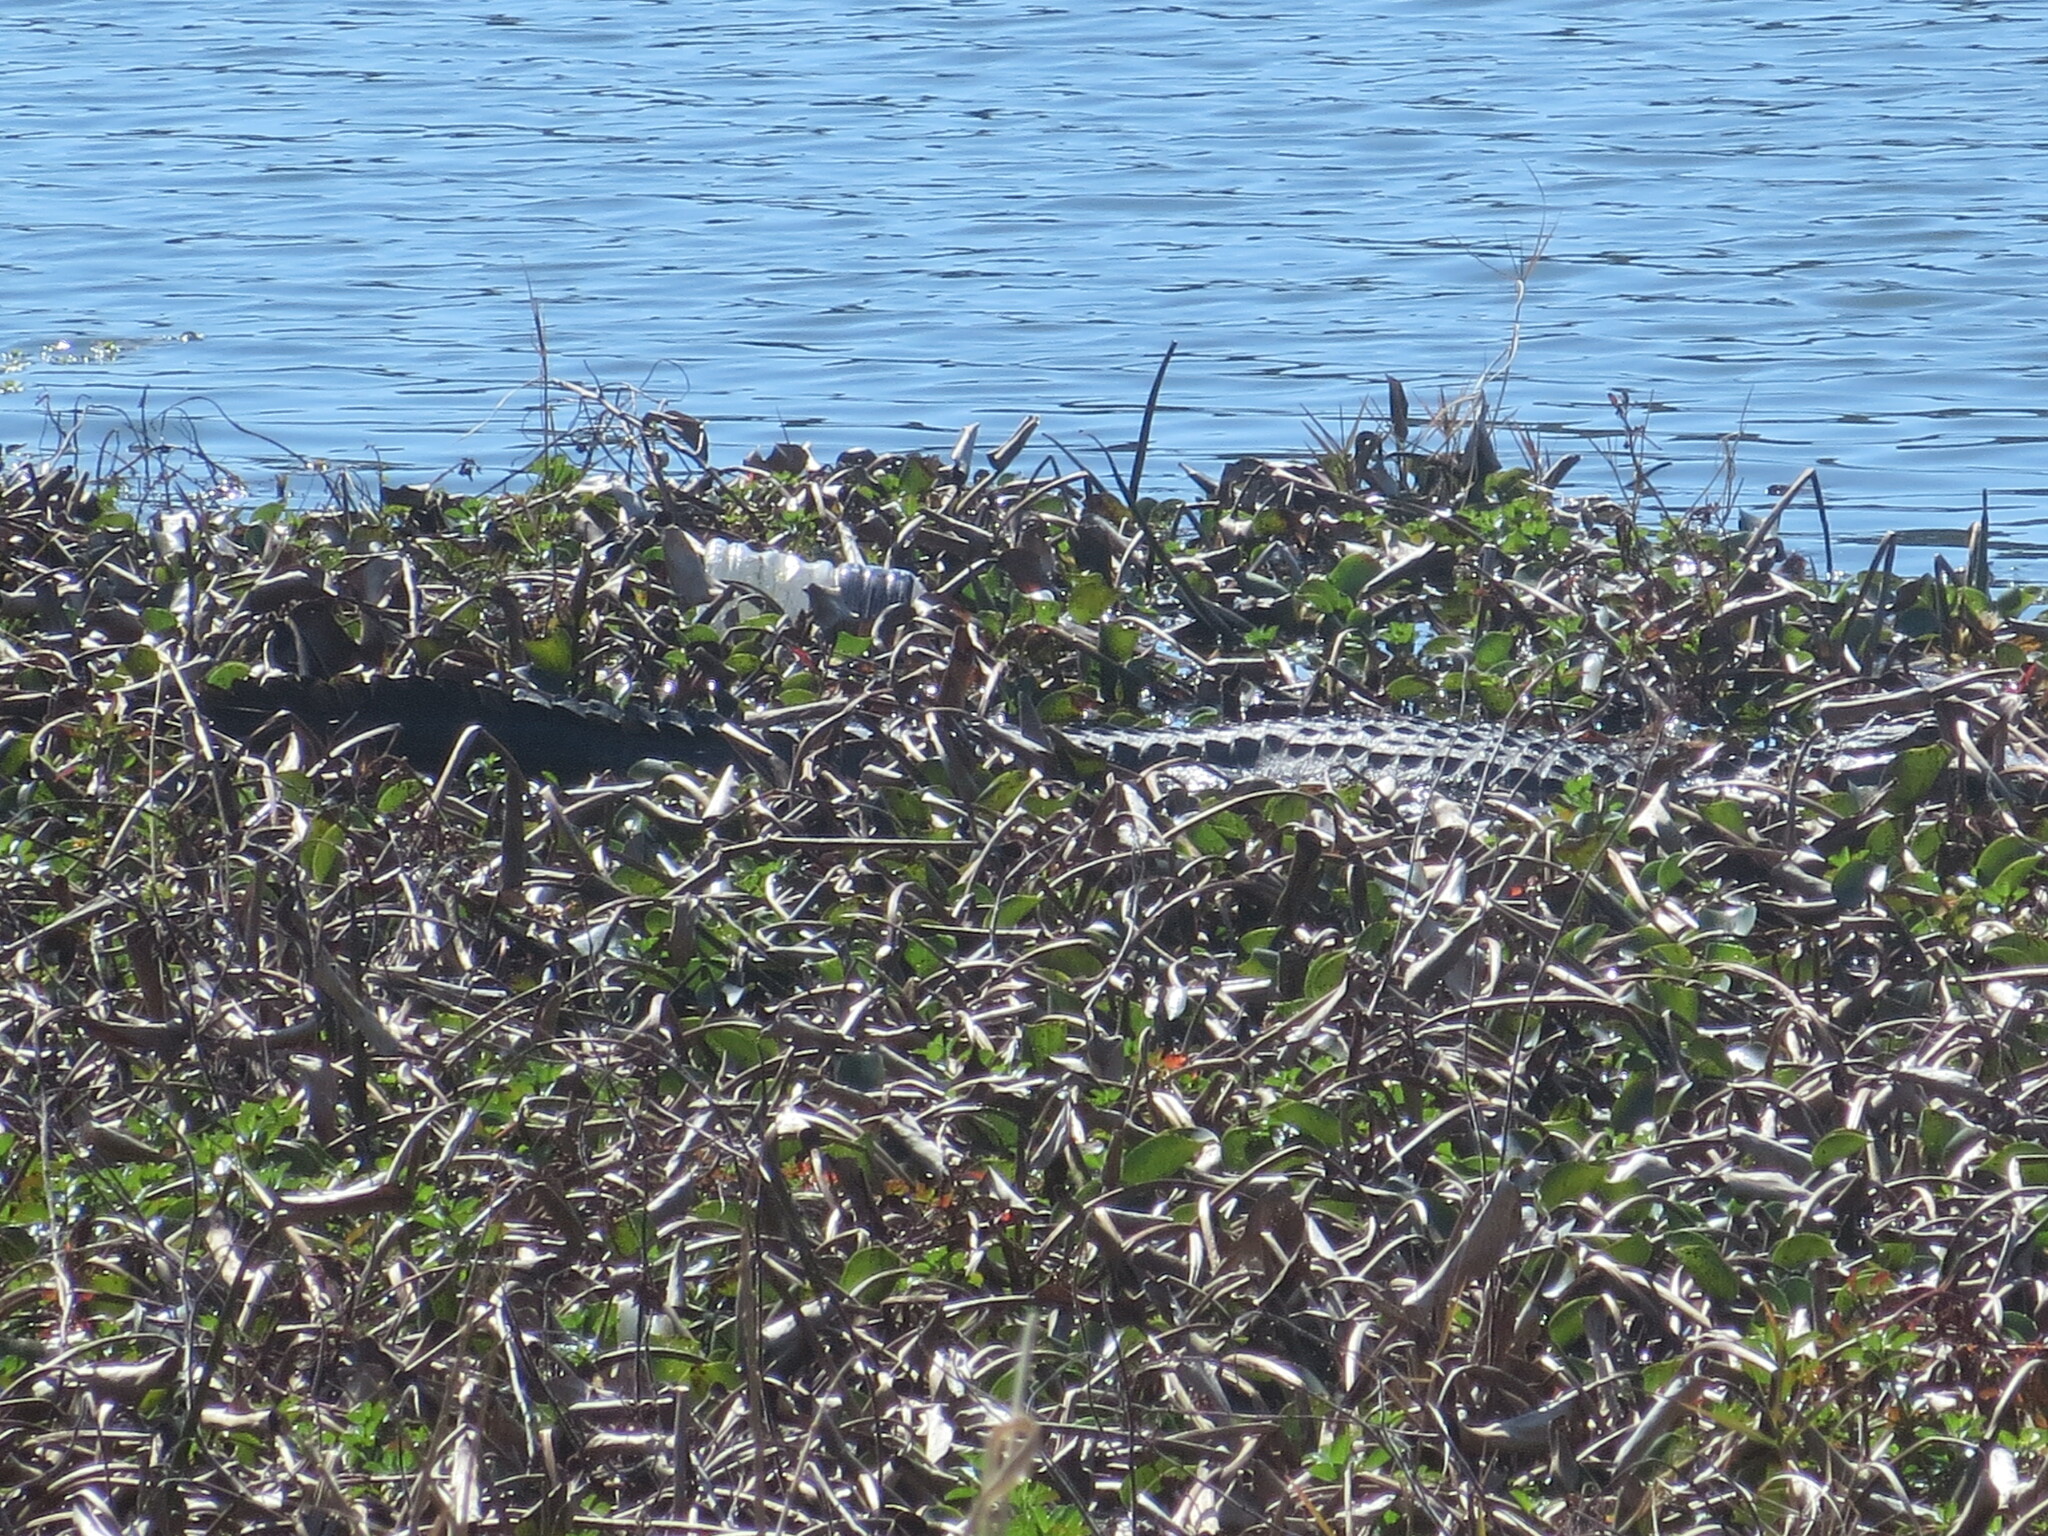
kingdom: Animalia
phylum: Chordata
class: Crocodylia
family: Alligatoridae
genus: Alligator
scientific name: Alligator mississippiensis
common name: American alligator
